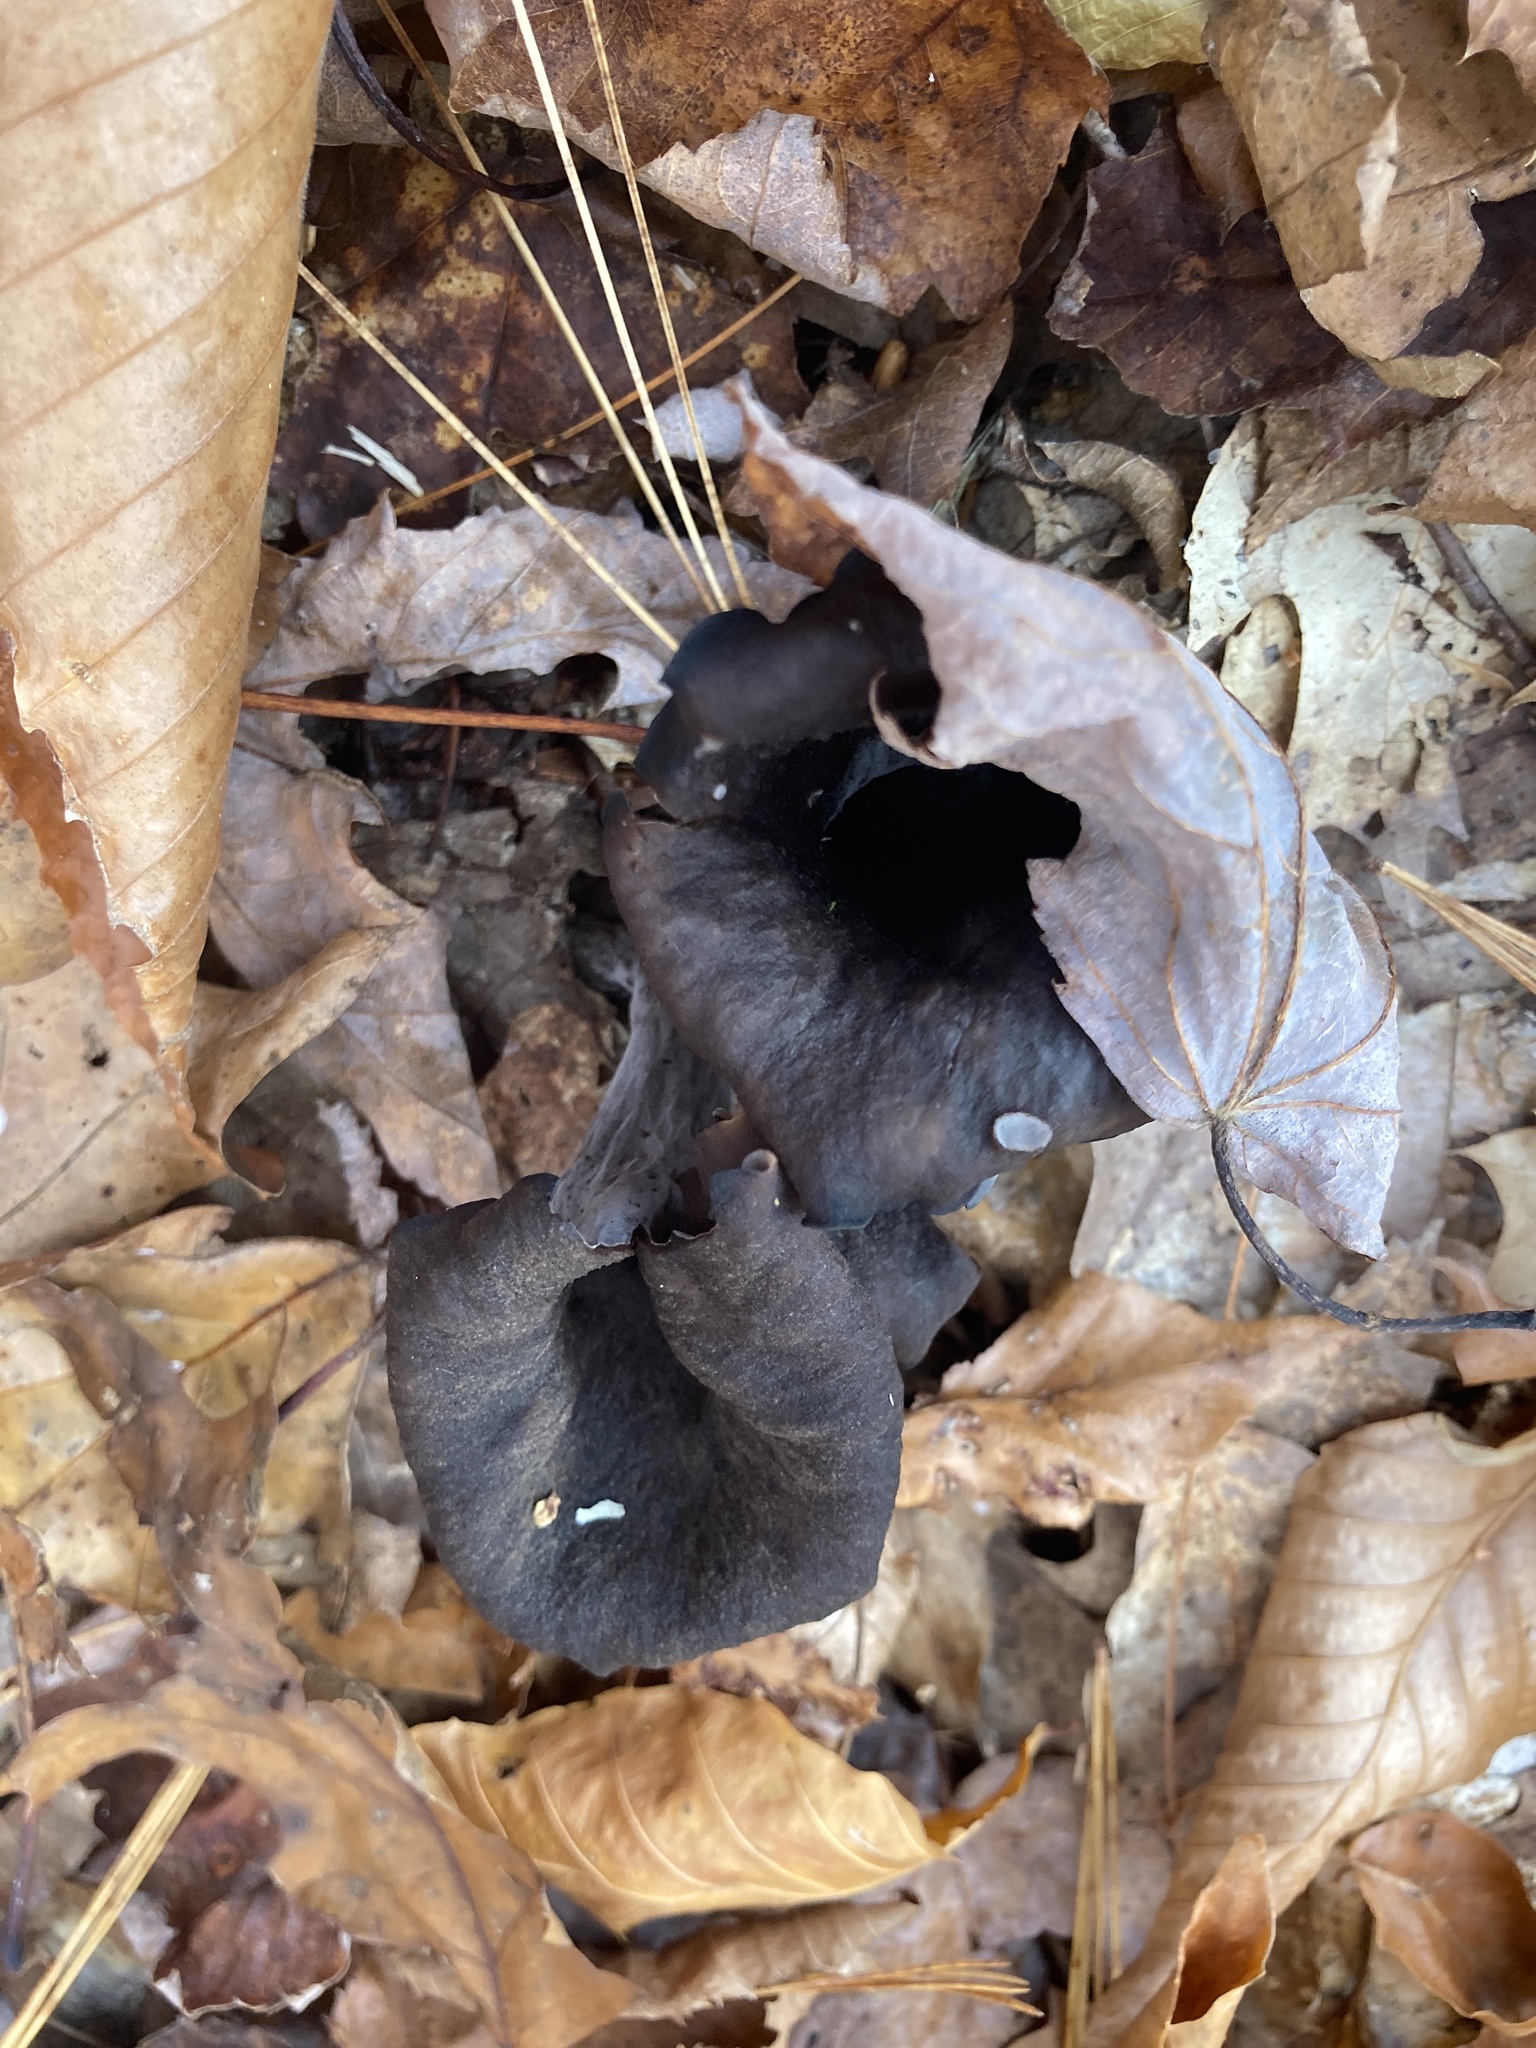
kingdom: Fungi
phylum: Basidiomycota
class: Agaricomycetes
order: Cantharellales
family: Hydnaceae
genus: Craterellus
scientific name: Craterellus cornucopioides
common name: Horn of plenty
